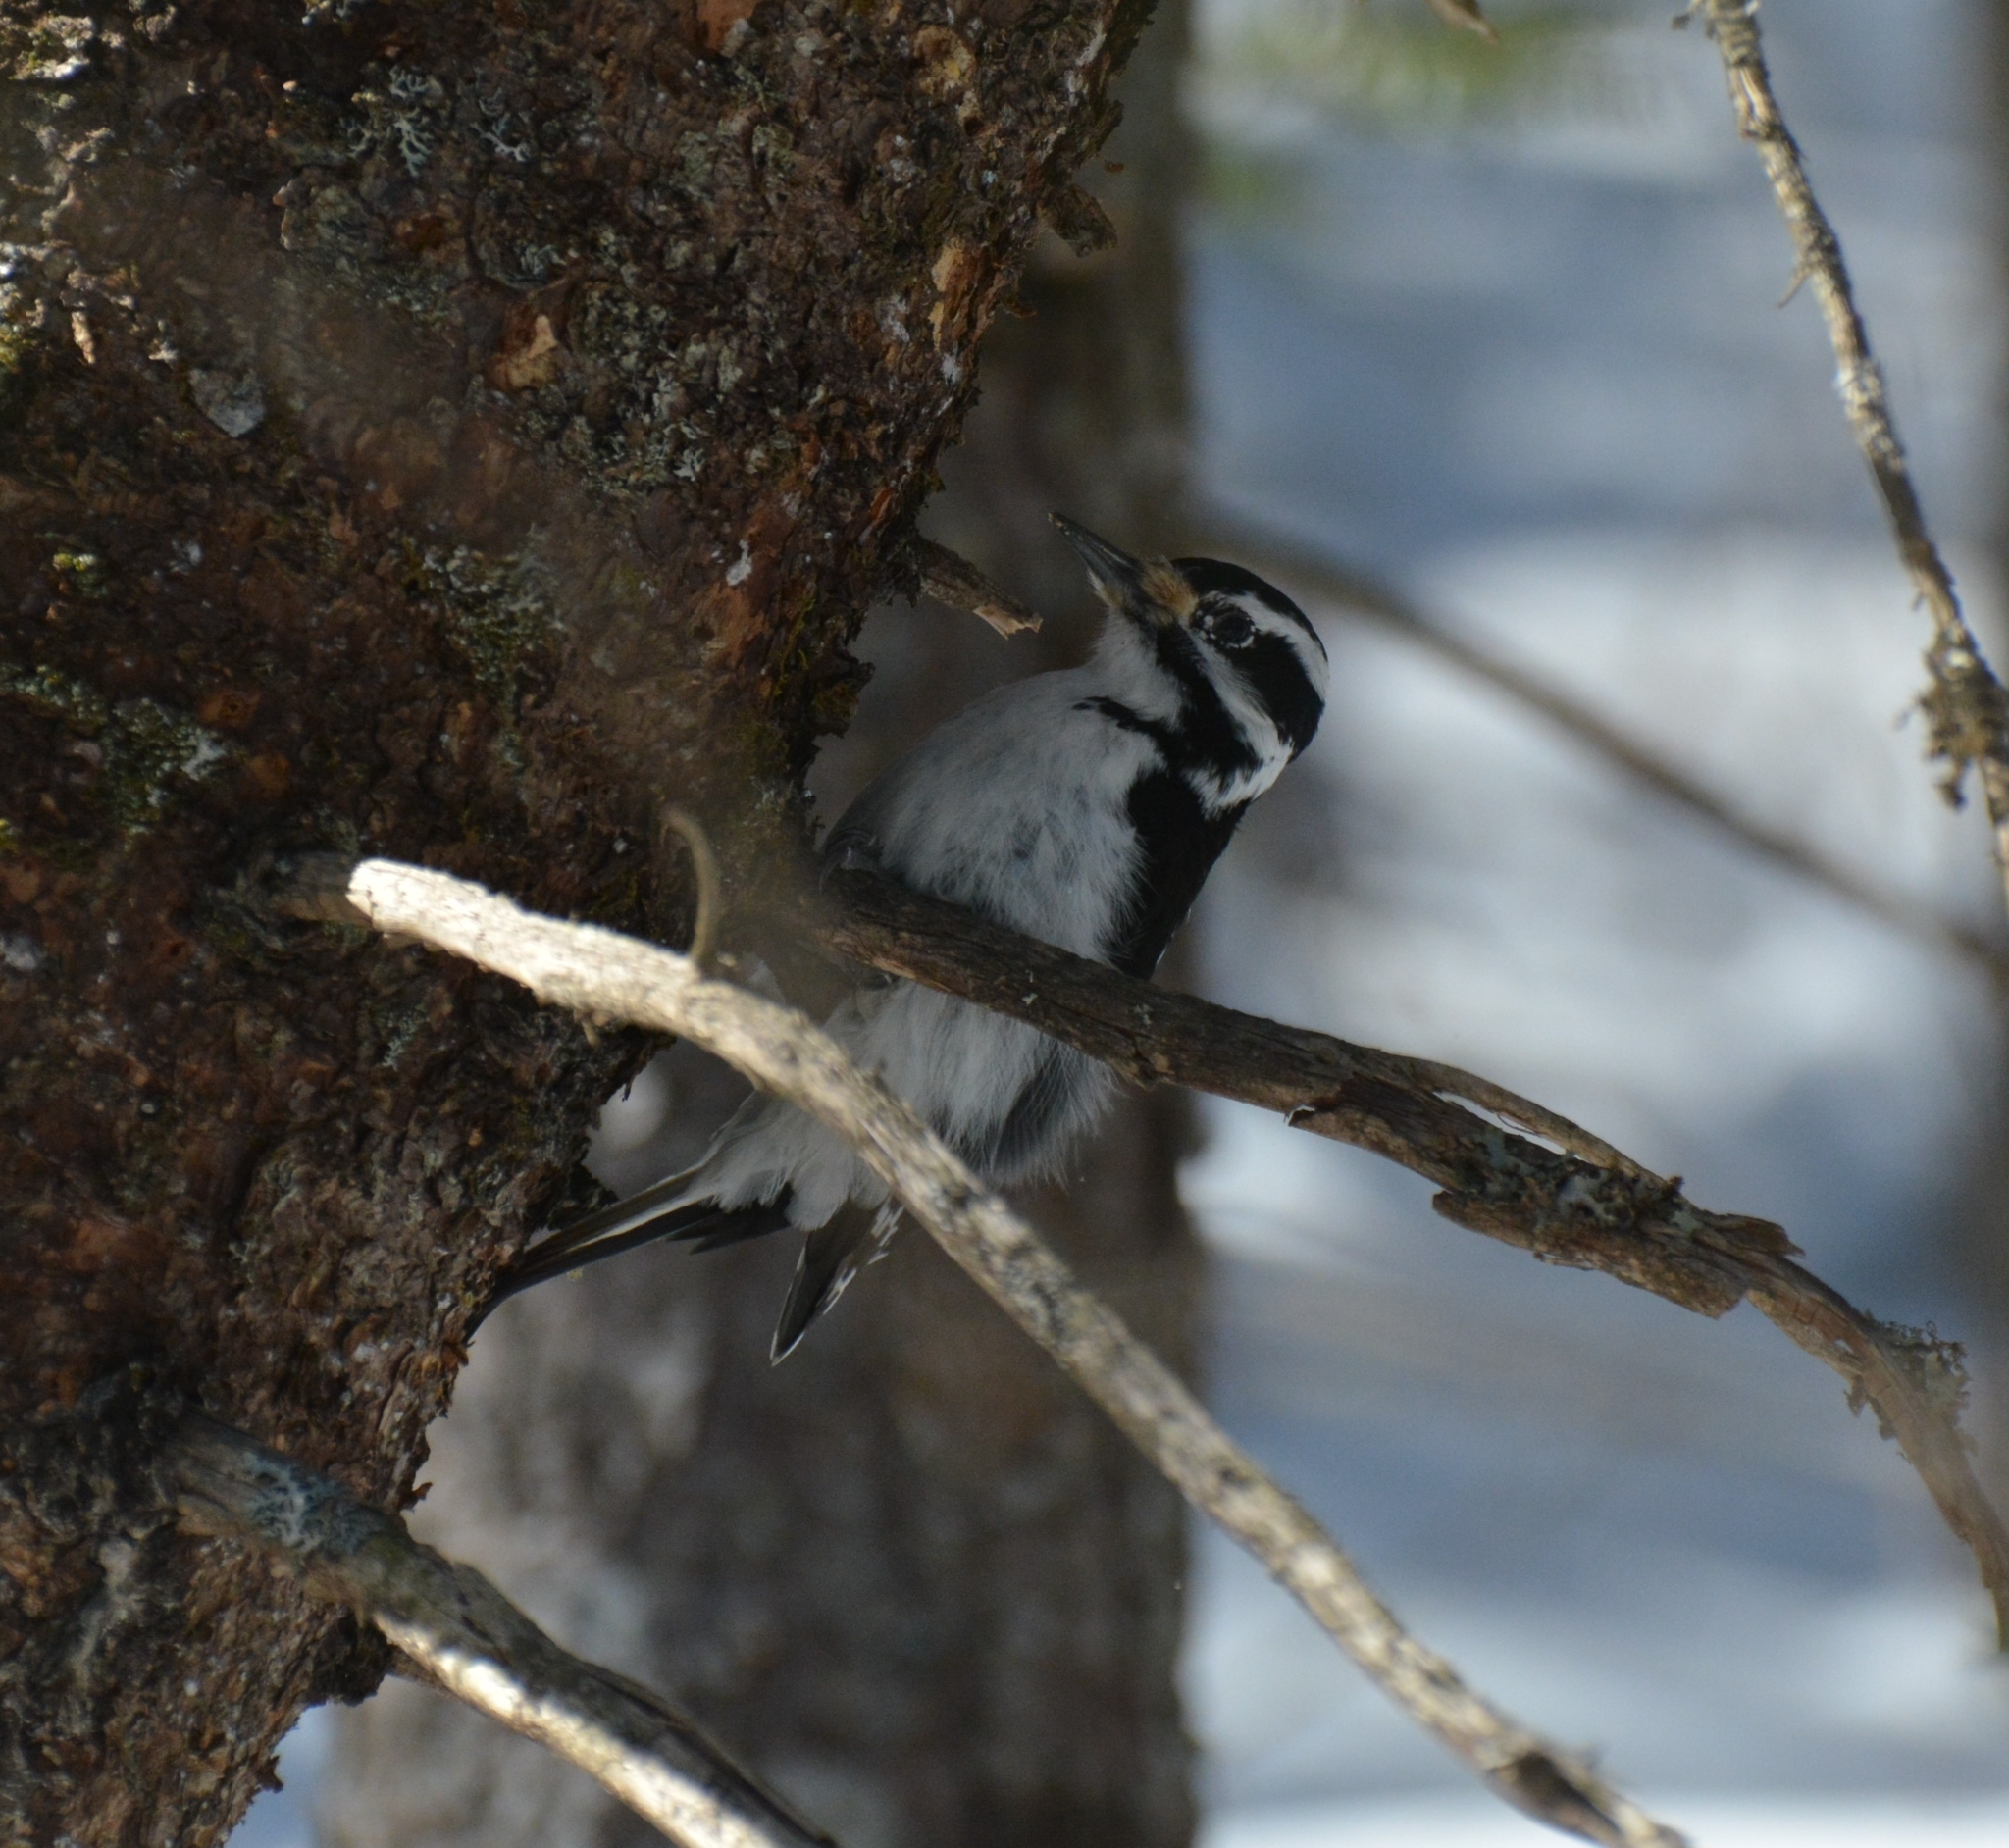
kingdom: Animalia
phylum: Chordata
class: Aves
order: Piciformes
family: Picidae
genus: Leuconotopicus
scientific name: Leuconotopicus villosus
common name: Hairy woodpecker
